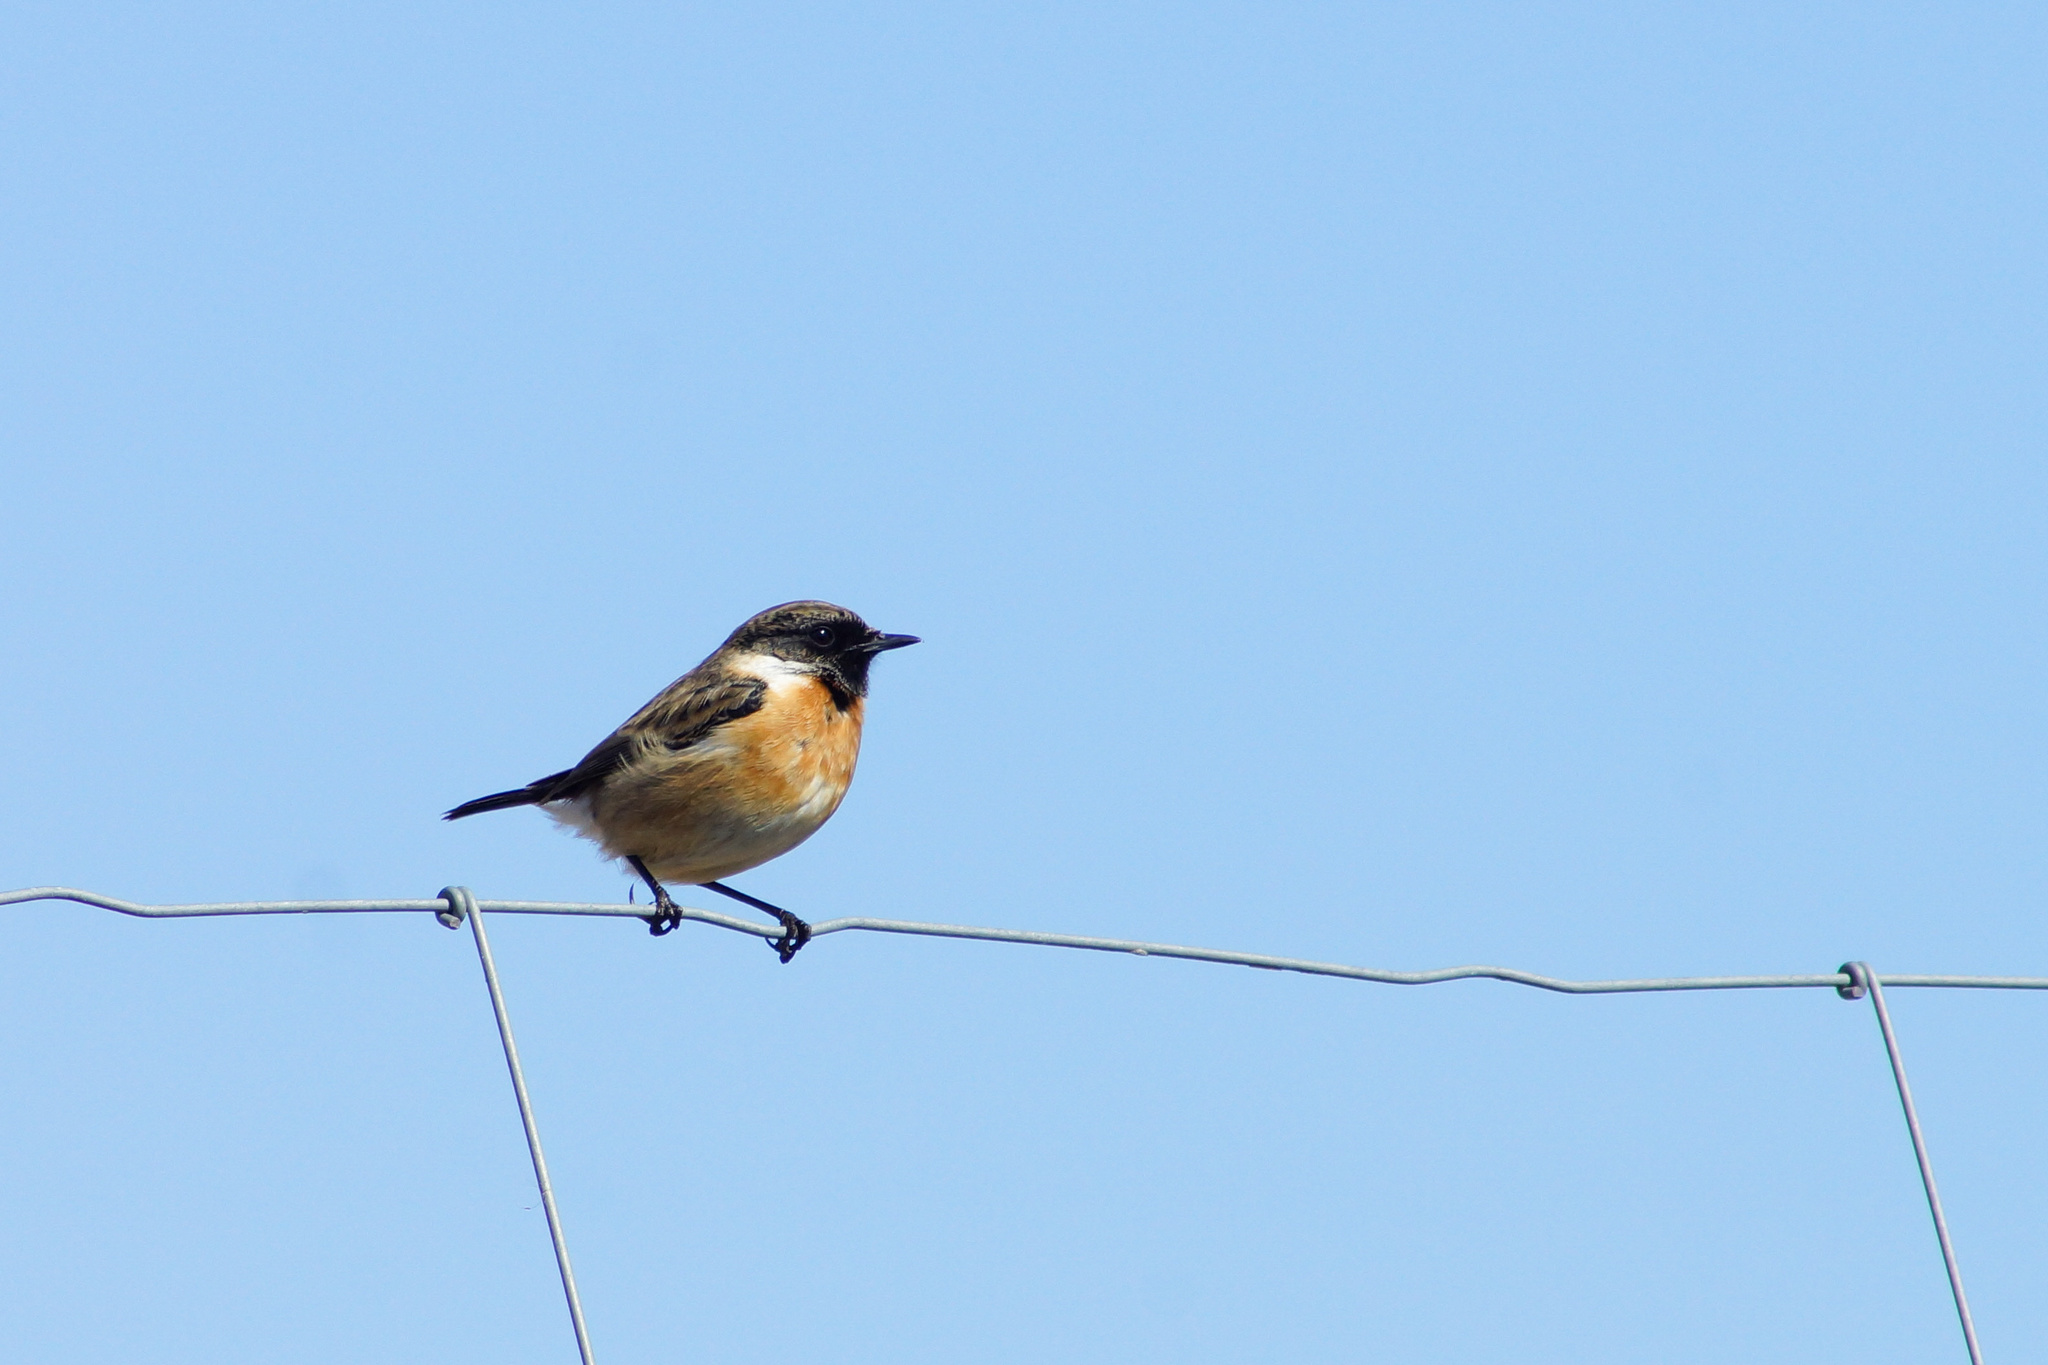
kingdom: Animalia
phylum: Chordata
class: Aves
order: Passeriformes
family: Muscicapidae
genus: Saxicola
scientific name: Saxicola rubicola
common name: European stonechat
